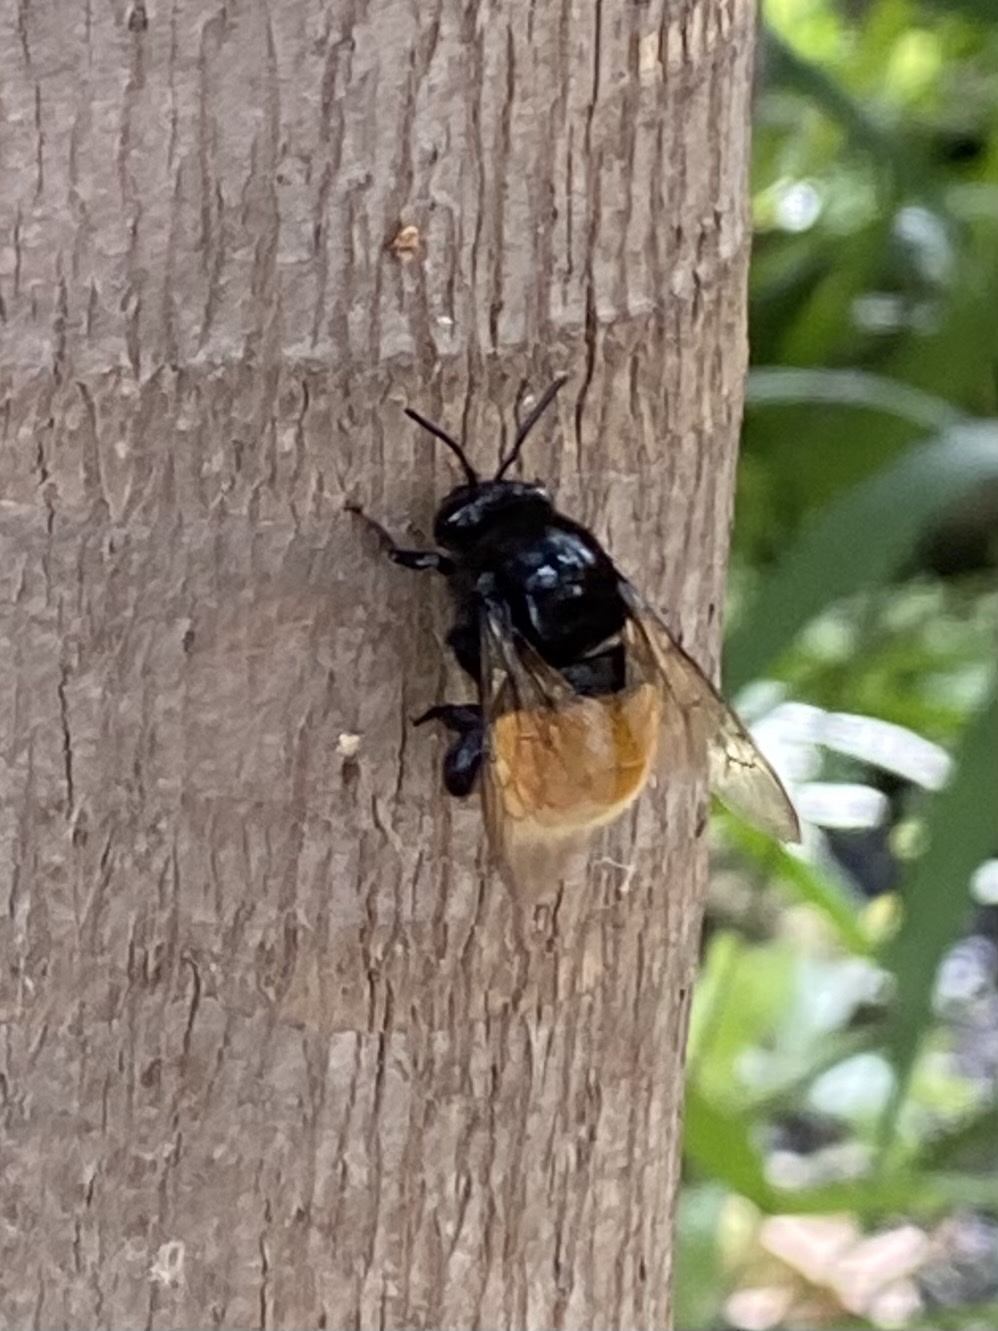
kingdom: Animalia
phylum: Arthropoda
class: Insecta
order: Hymenoptera
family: Apidae
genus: Eulaema
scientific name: Eulaema polychroma
